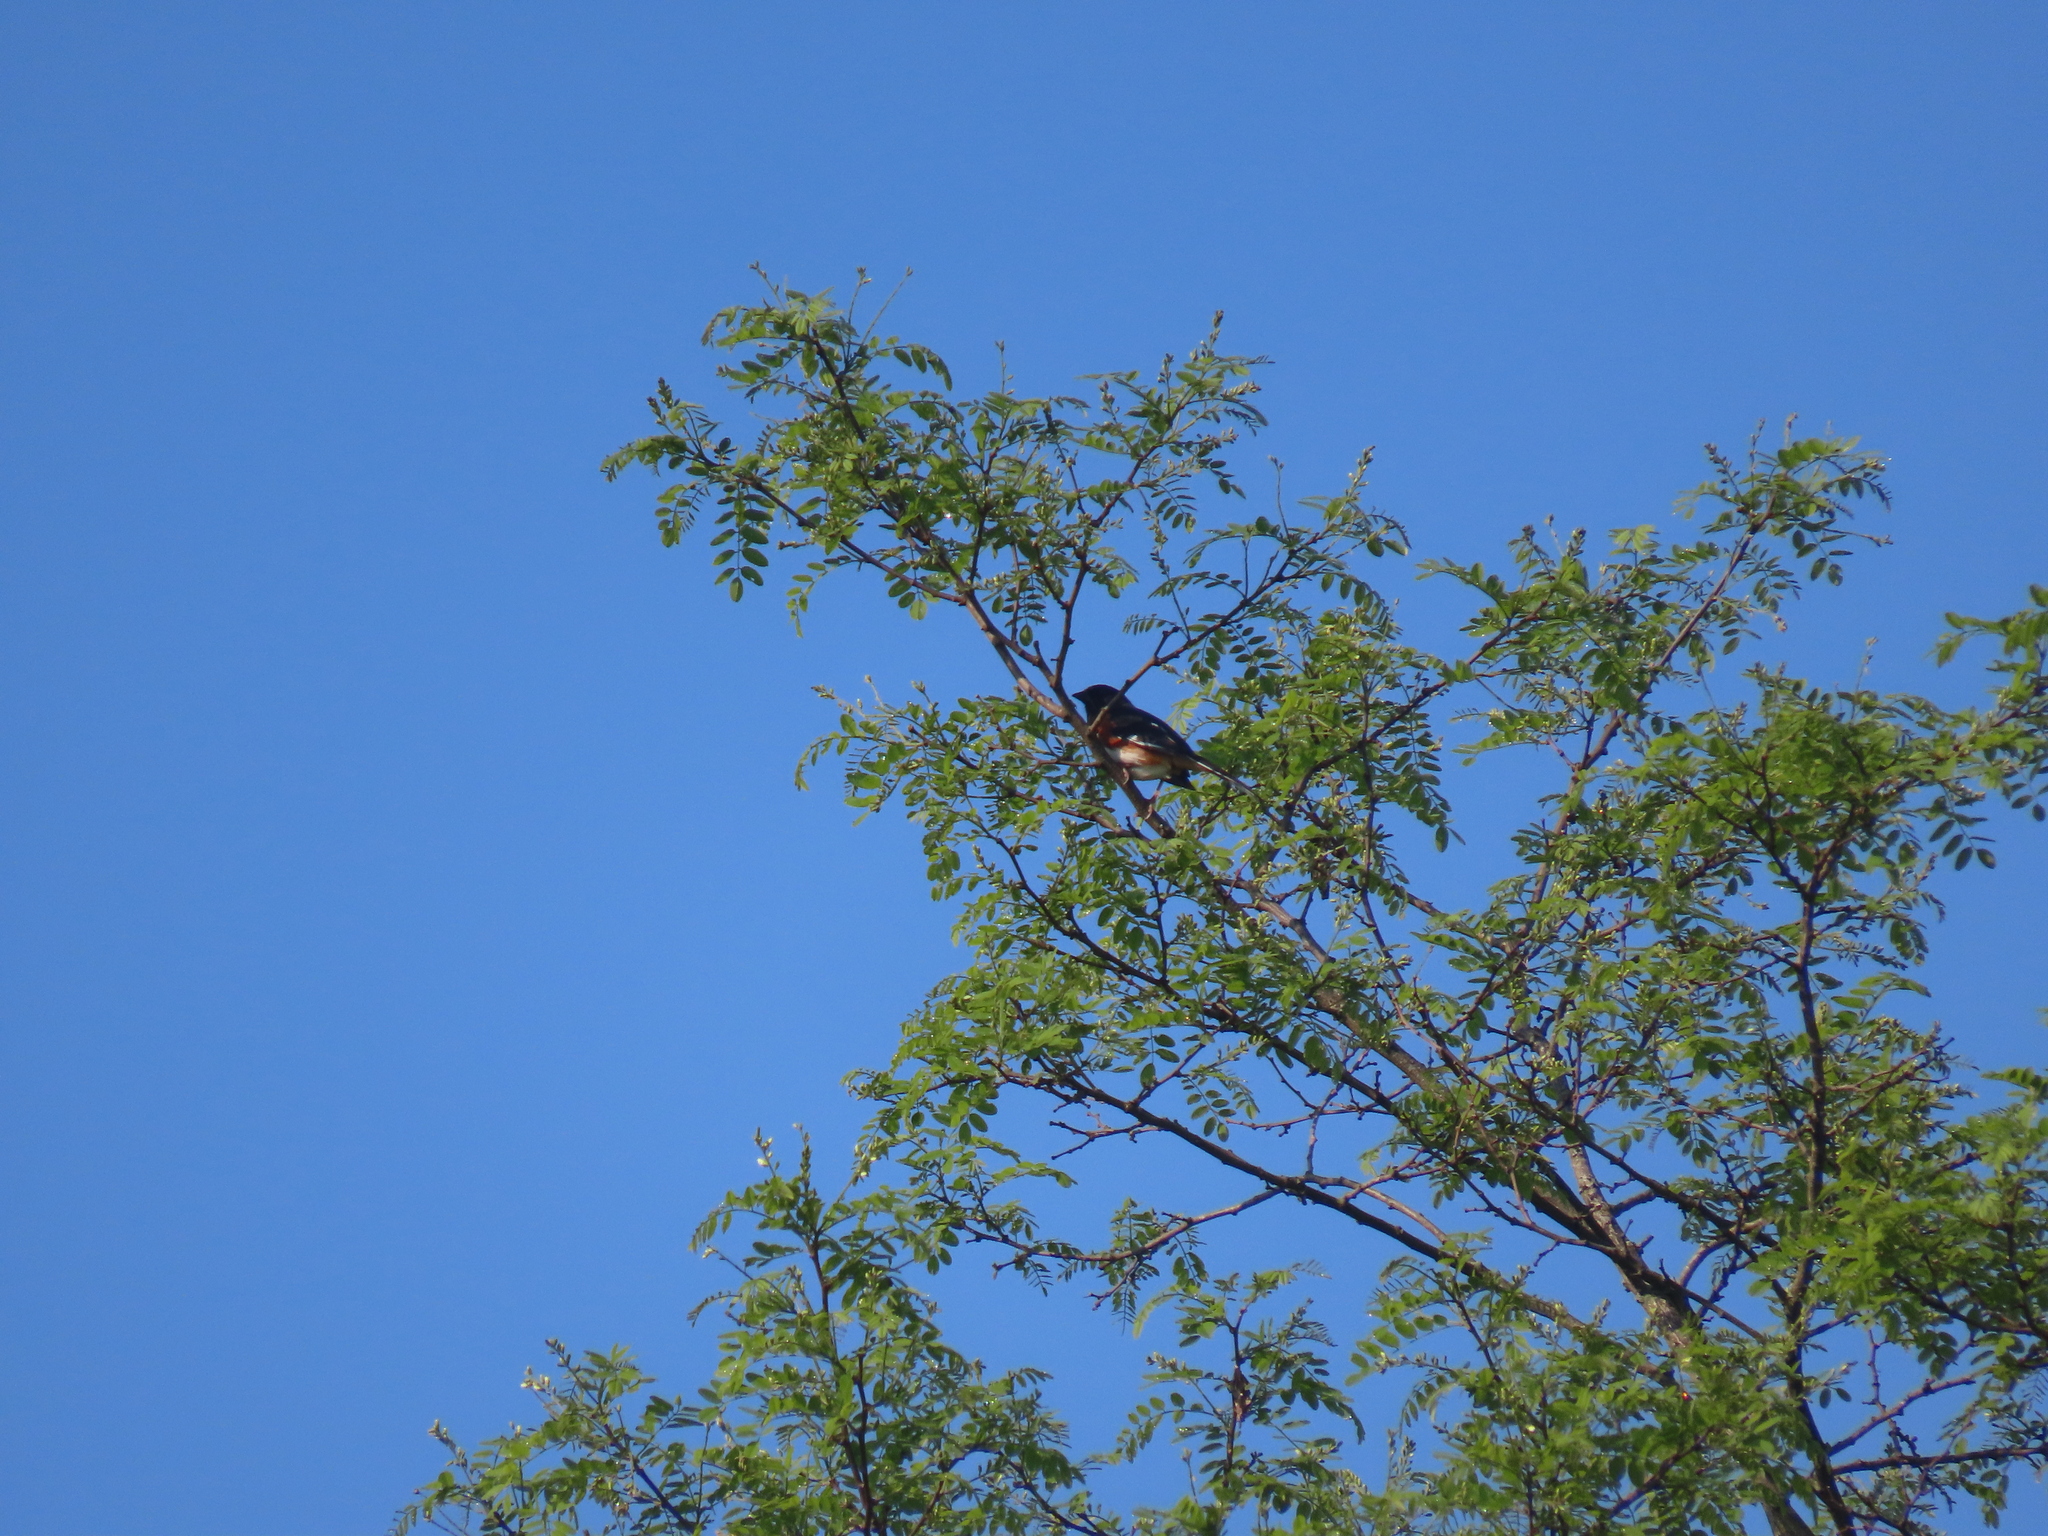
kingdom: Animalia
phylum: Chordata
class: Aves
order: Passeriformes
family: Passerellidae
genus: Pipilo
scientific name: Pipilo erythrophthalmus
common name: Eastern towhee
